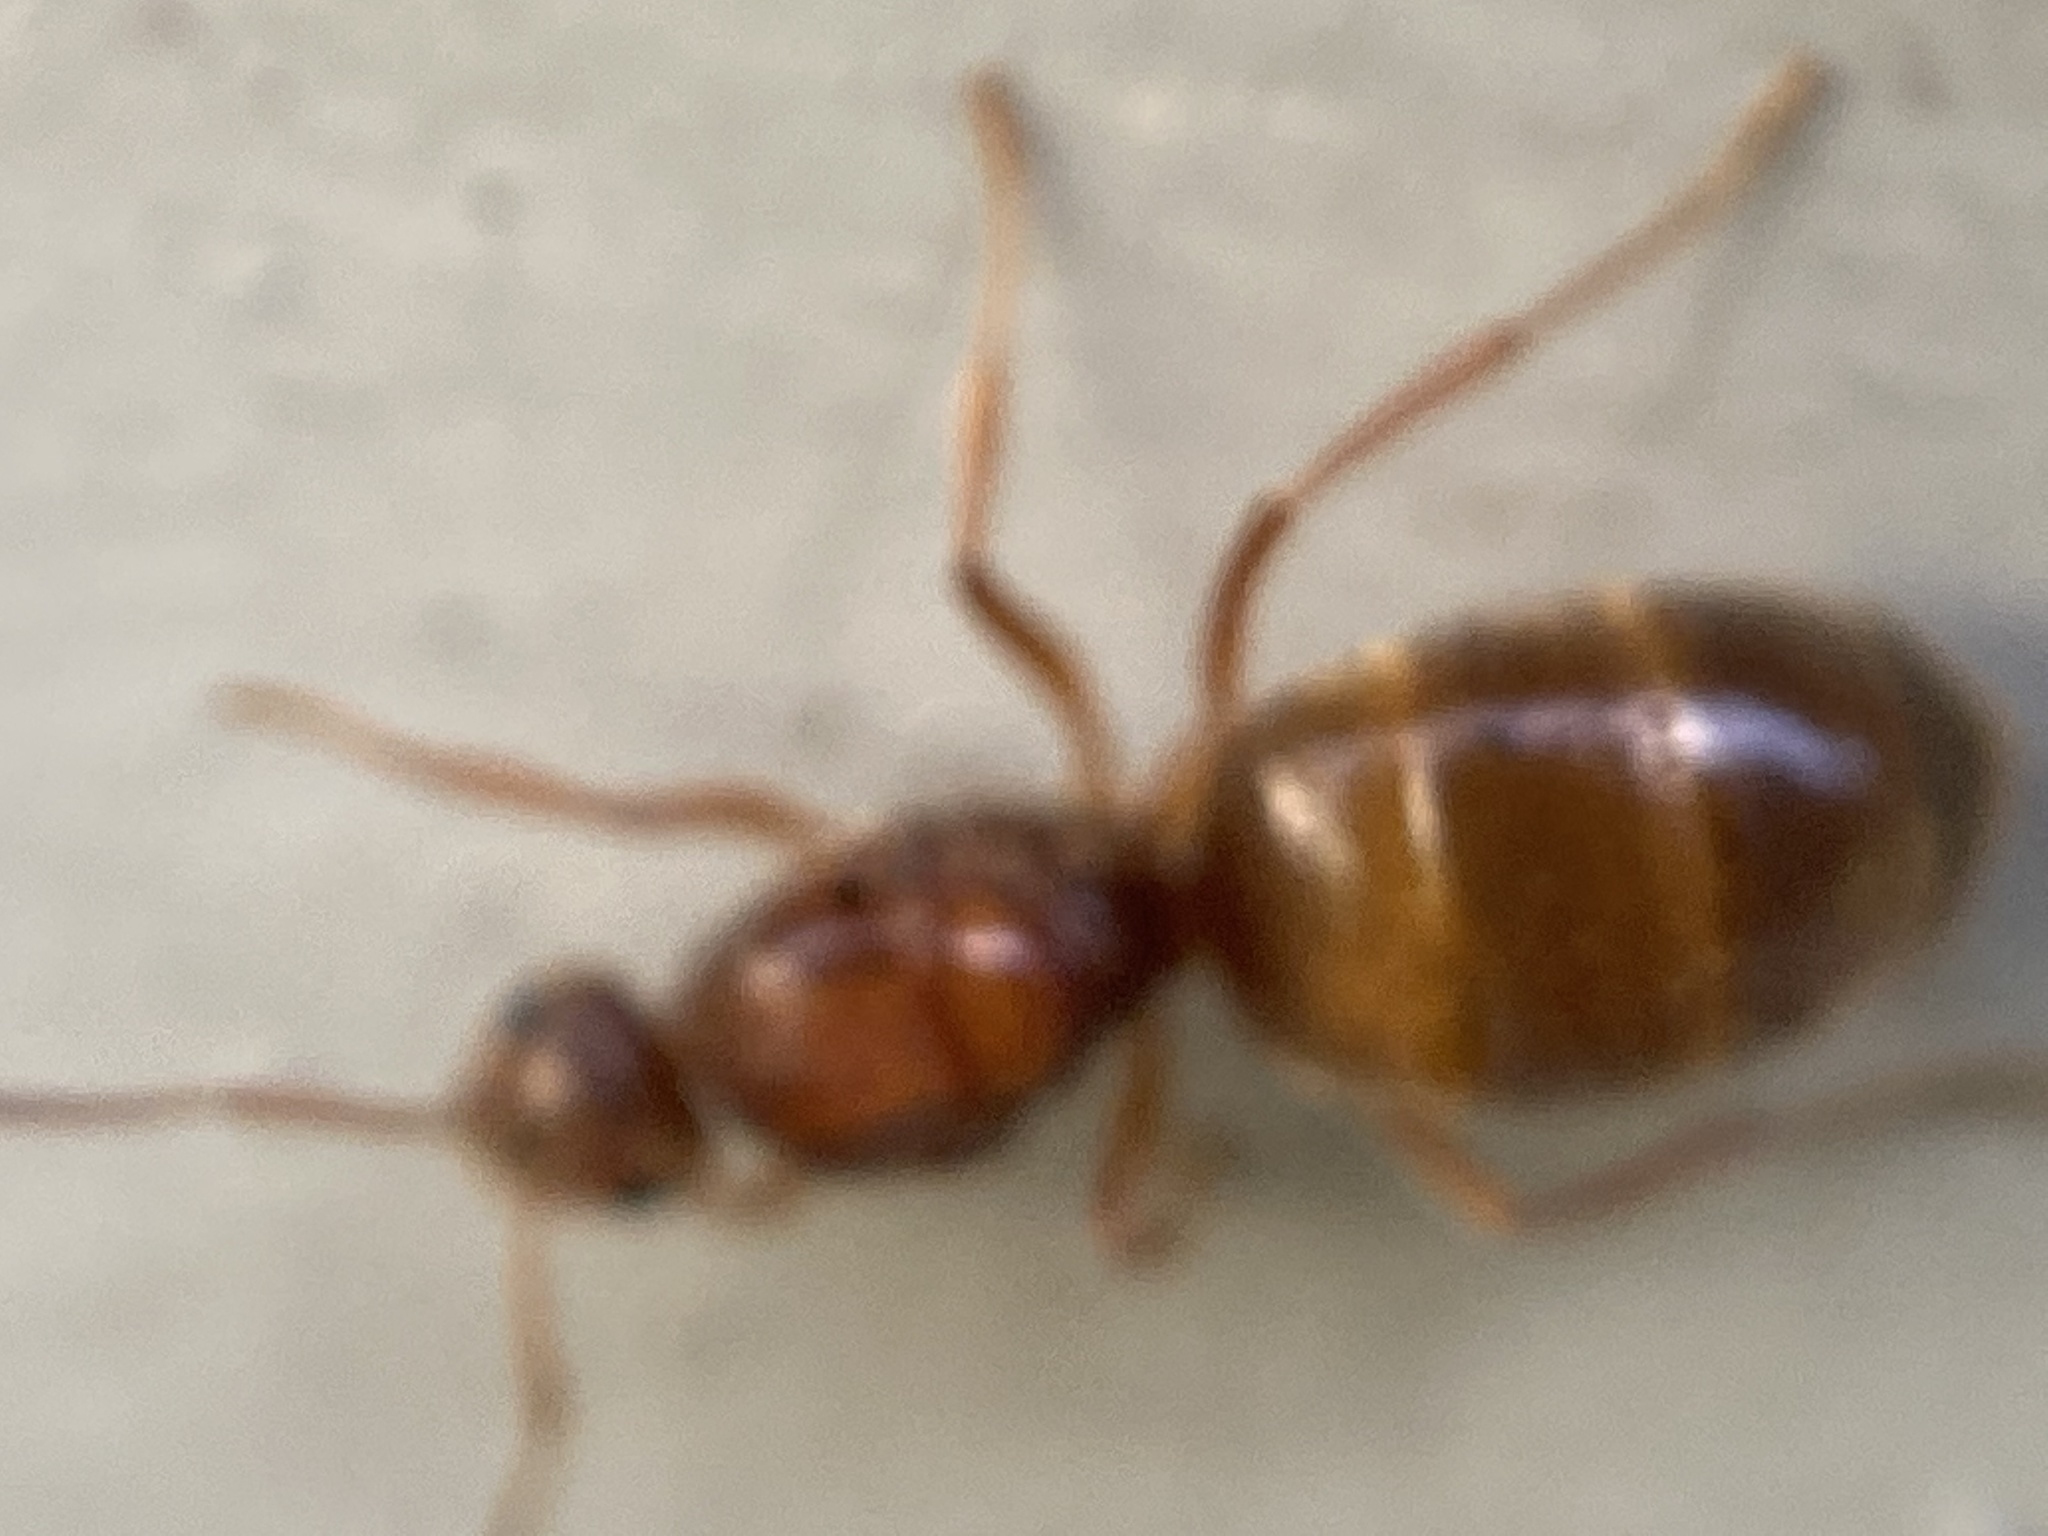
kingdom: Animalia
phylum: Arthropoda
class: Insecta
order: Hymenoptera
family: Formicidae
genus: Prenolepis
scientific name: Prenolepis imparis
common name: Small honey ant
